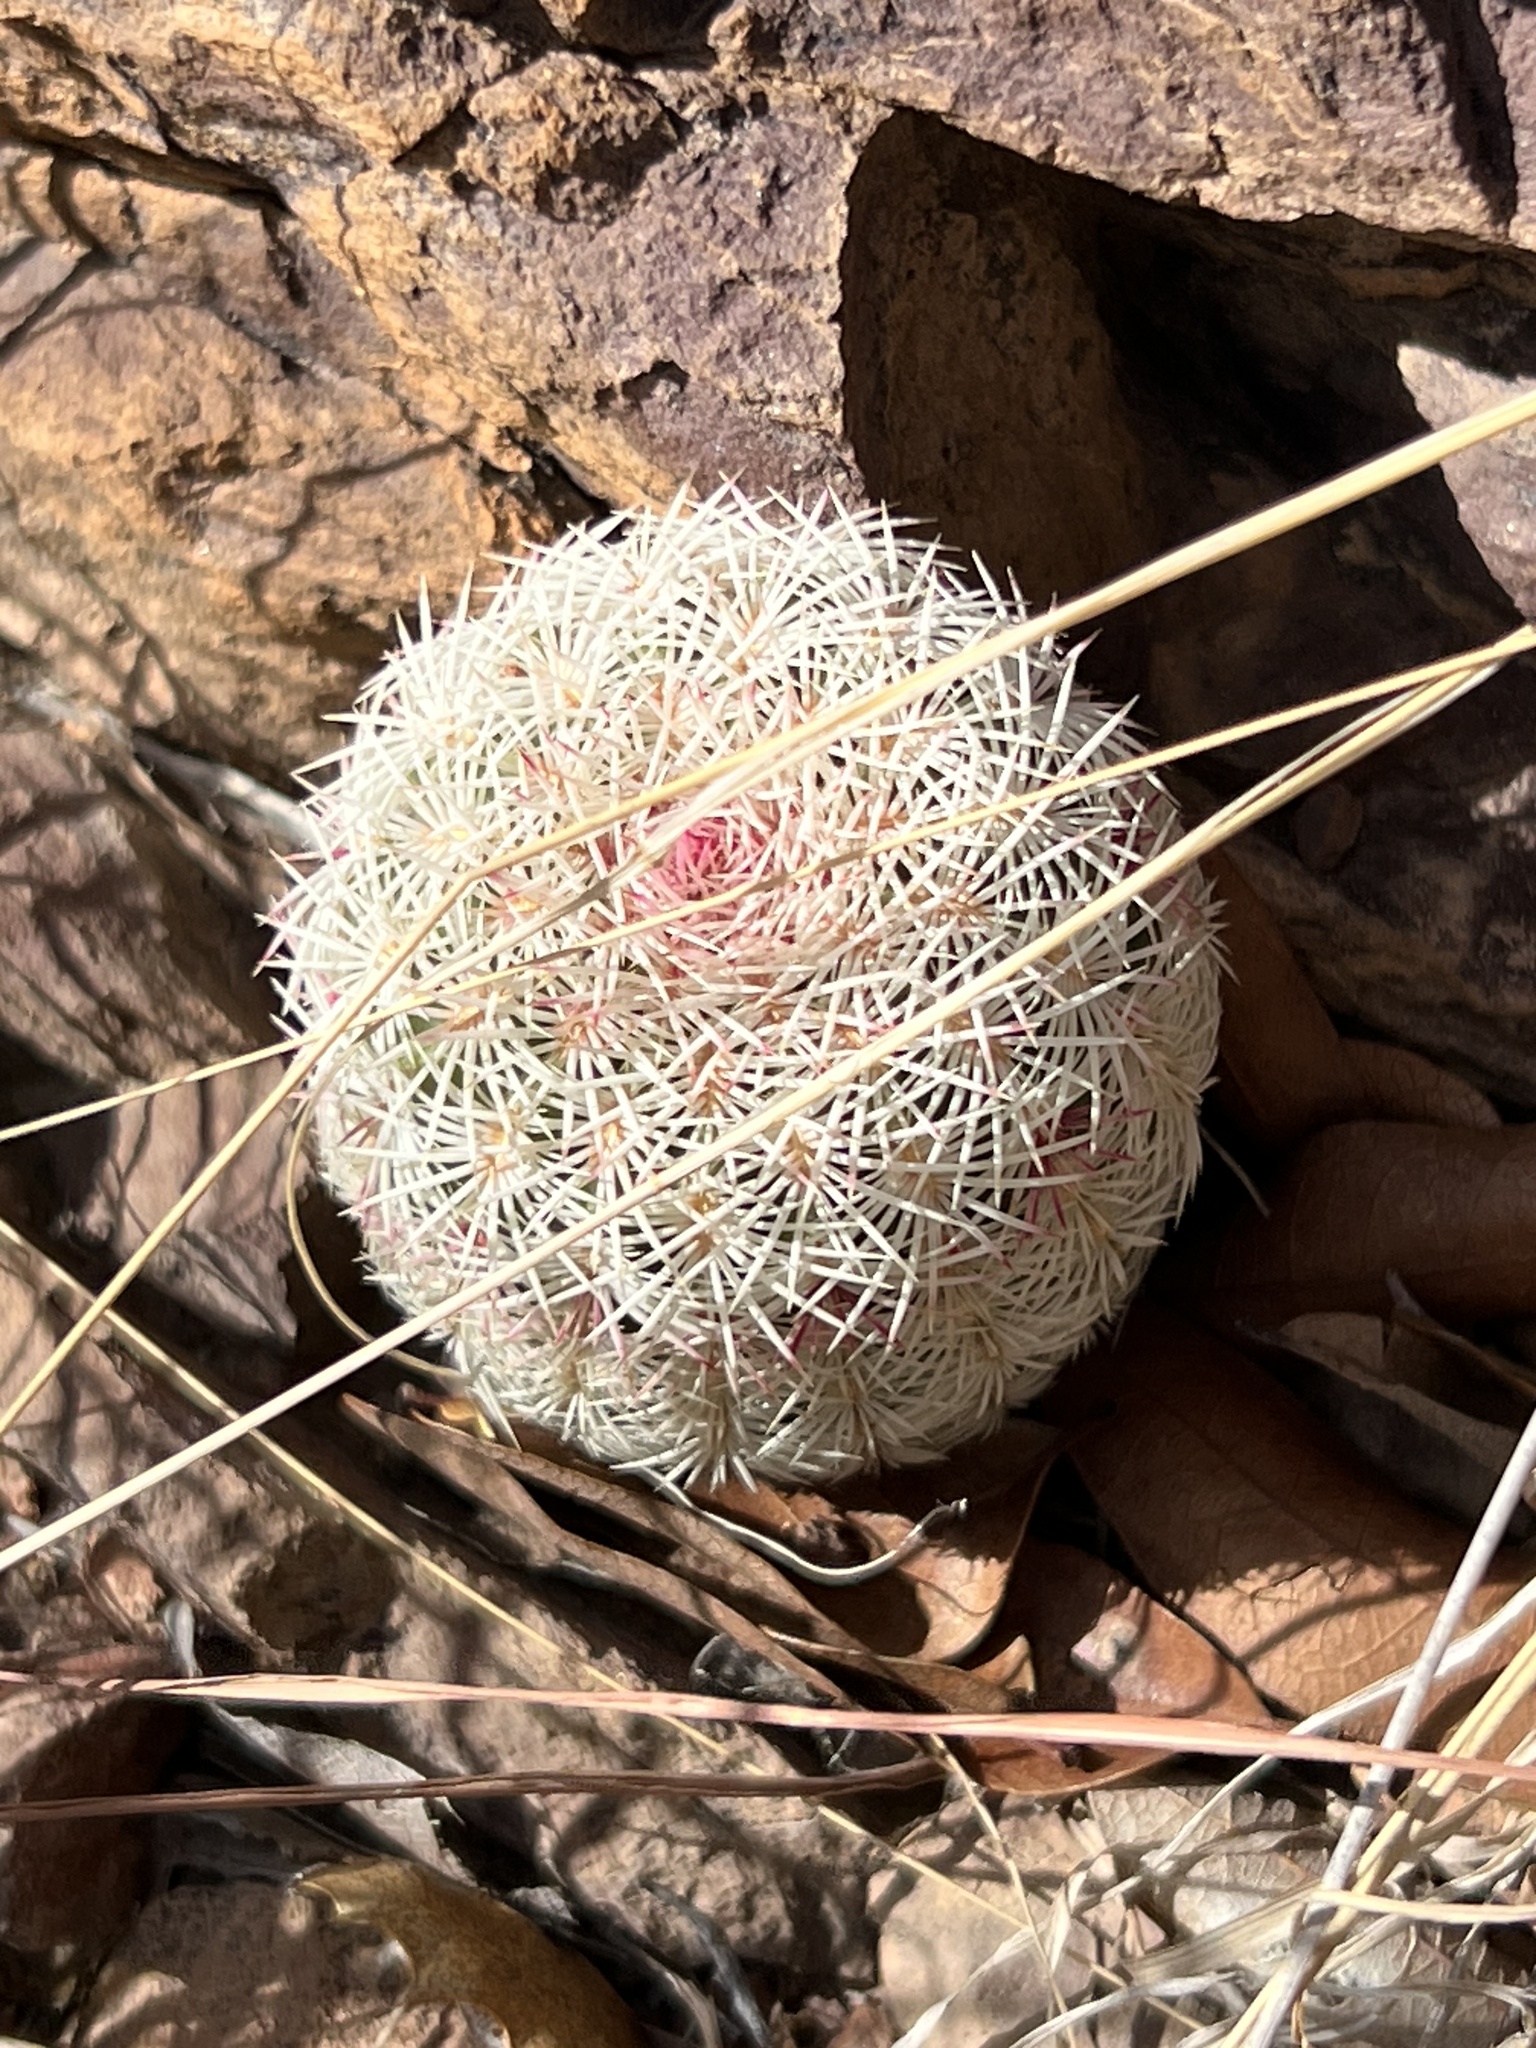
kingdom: Plantae
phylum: Tracheophyta
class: Magnoliopsida
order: Caryophyllales
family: Cactaceae
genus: Echinocereus
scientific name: Echinocereus rigidissimus
